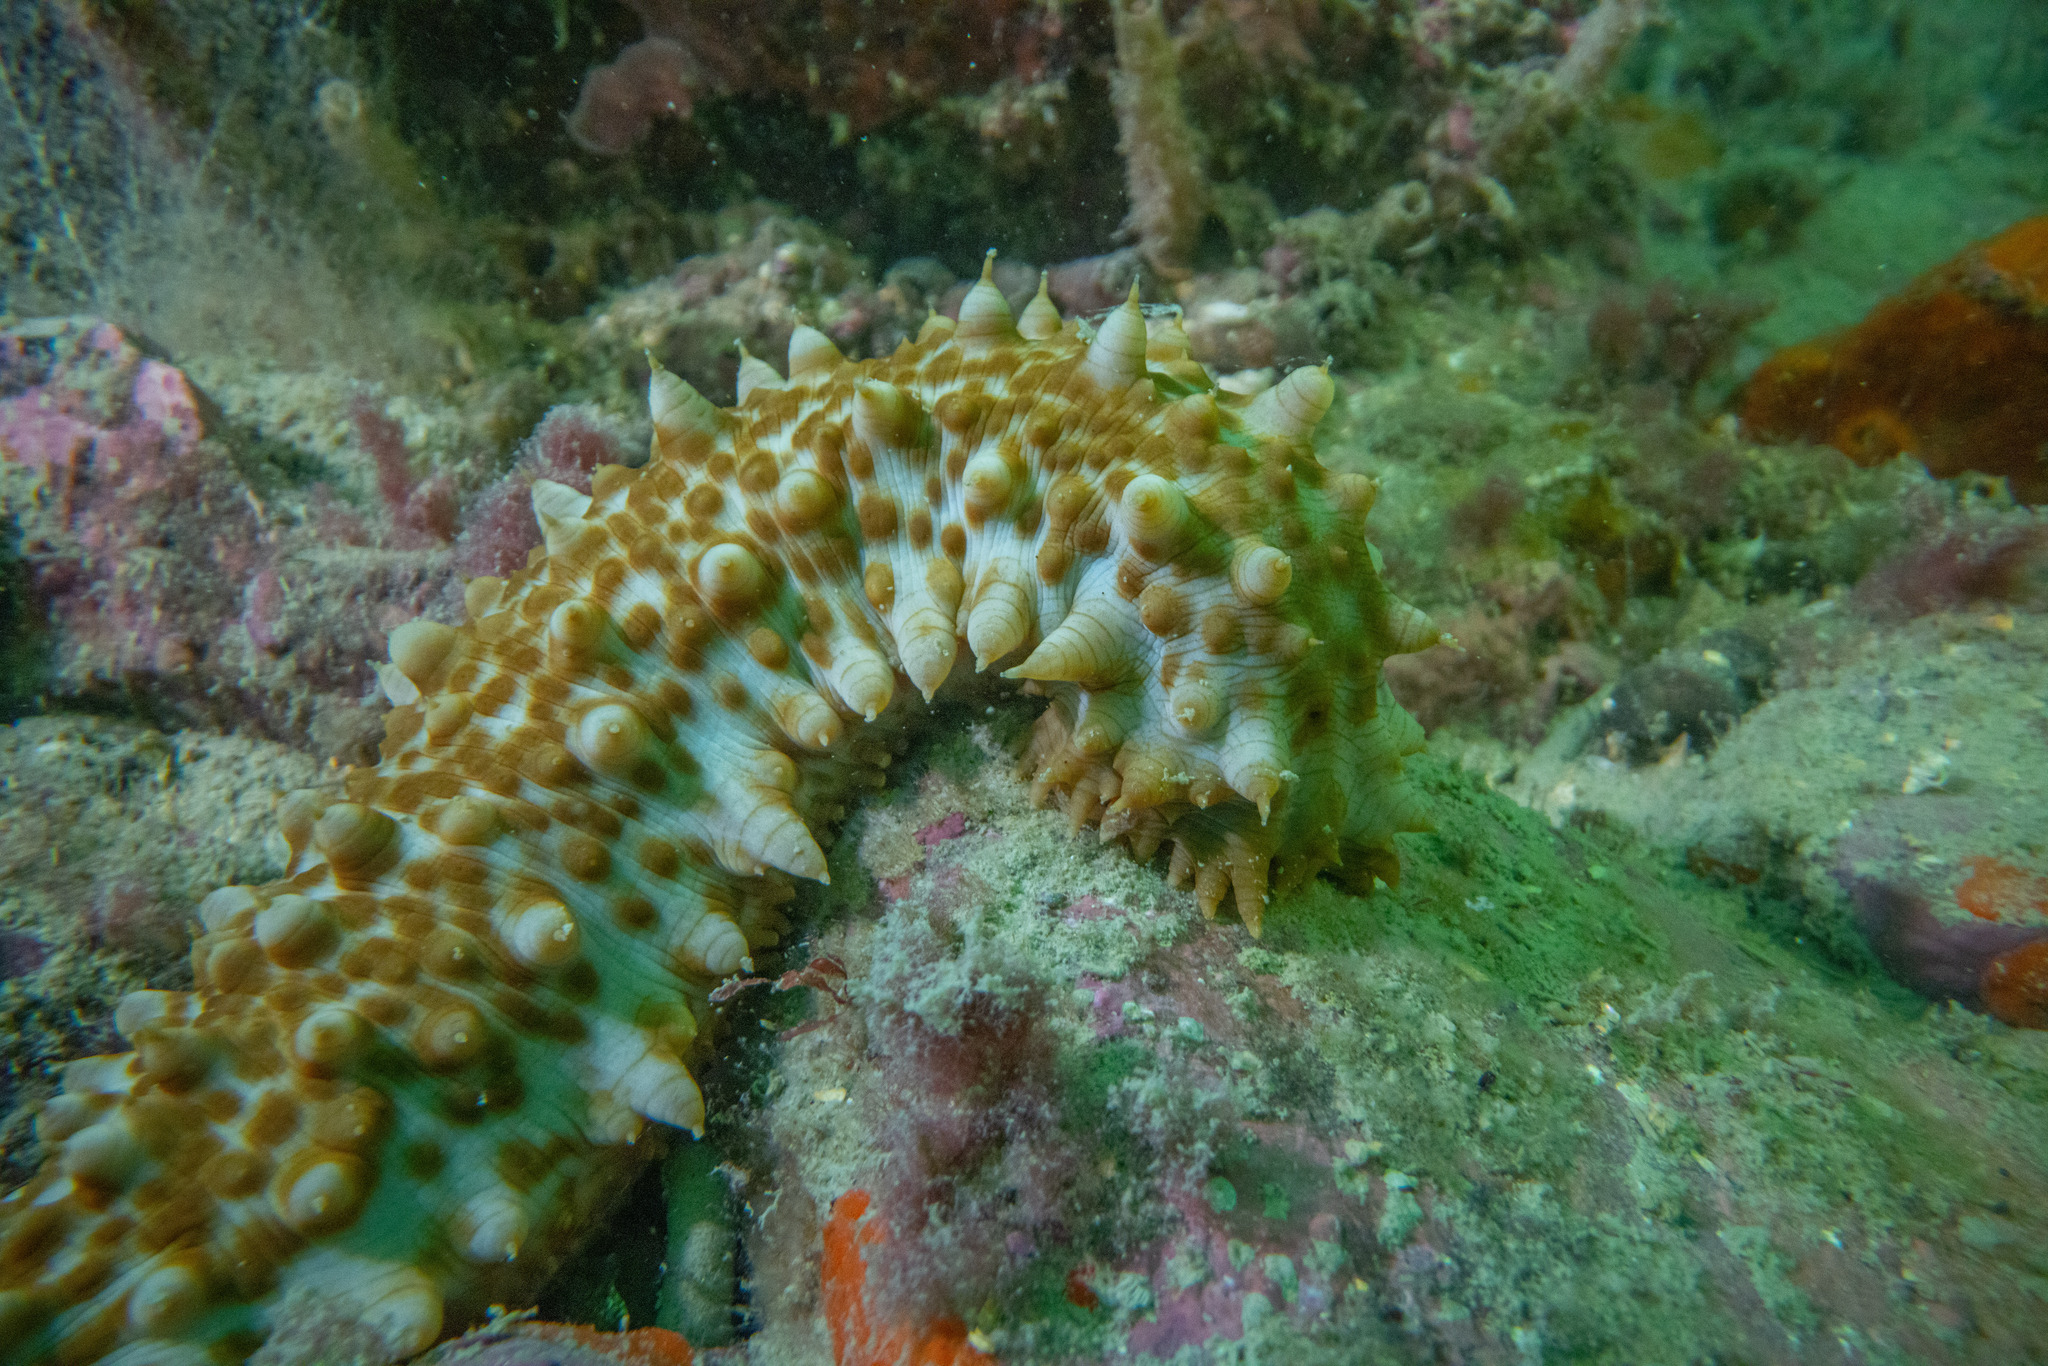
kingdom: Animalia
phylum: Echinodermata
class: Holothuroidea
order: Synallactida
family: Stichopodidae
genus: Australostichopus
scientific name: Australostichopus mollis
